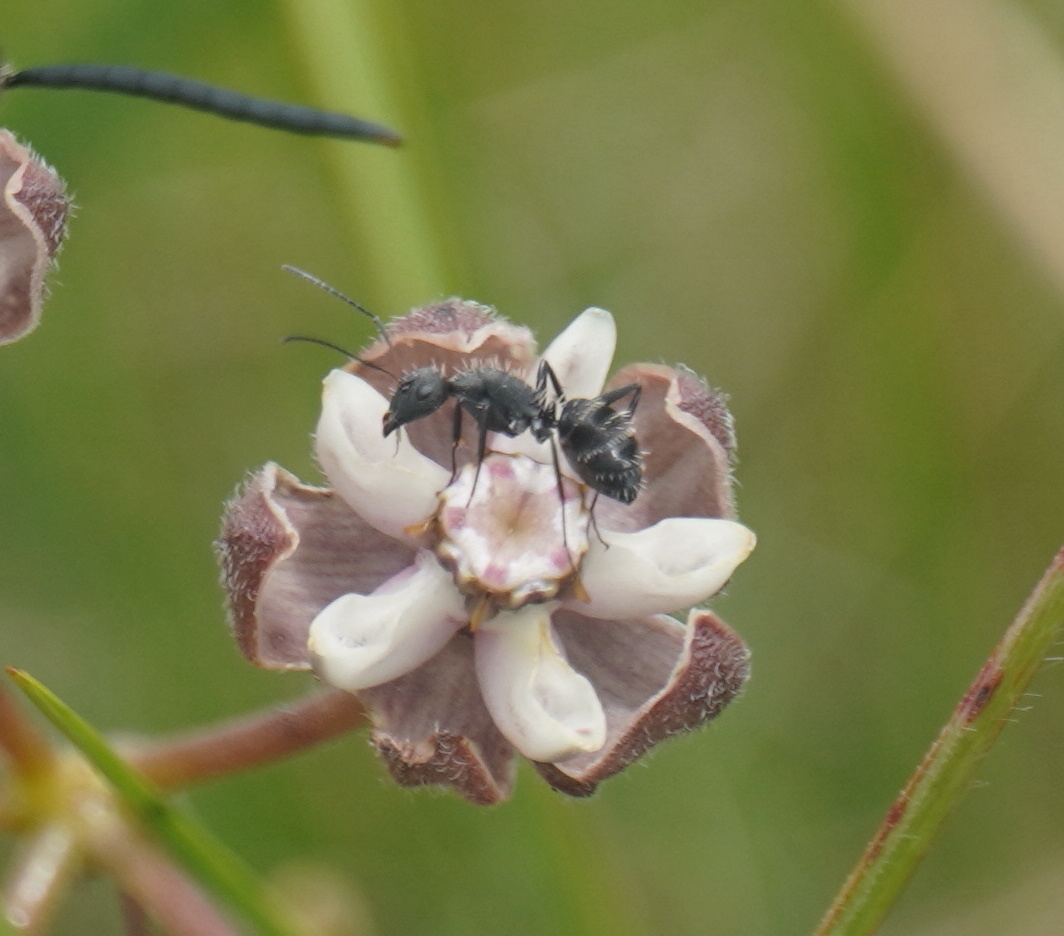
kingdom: Animalia
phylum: Arthropoda
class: Insecta
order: Hymenoptera
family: Formicidae
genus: Camponotus
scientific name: Camponotus niveosetosus
